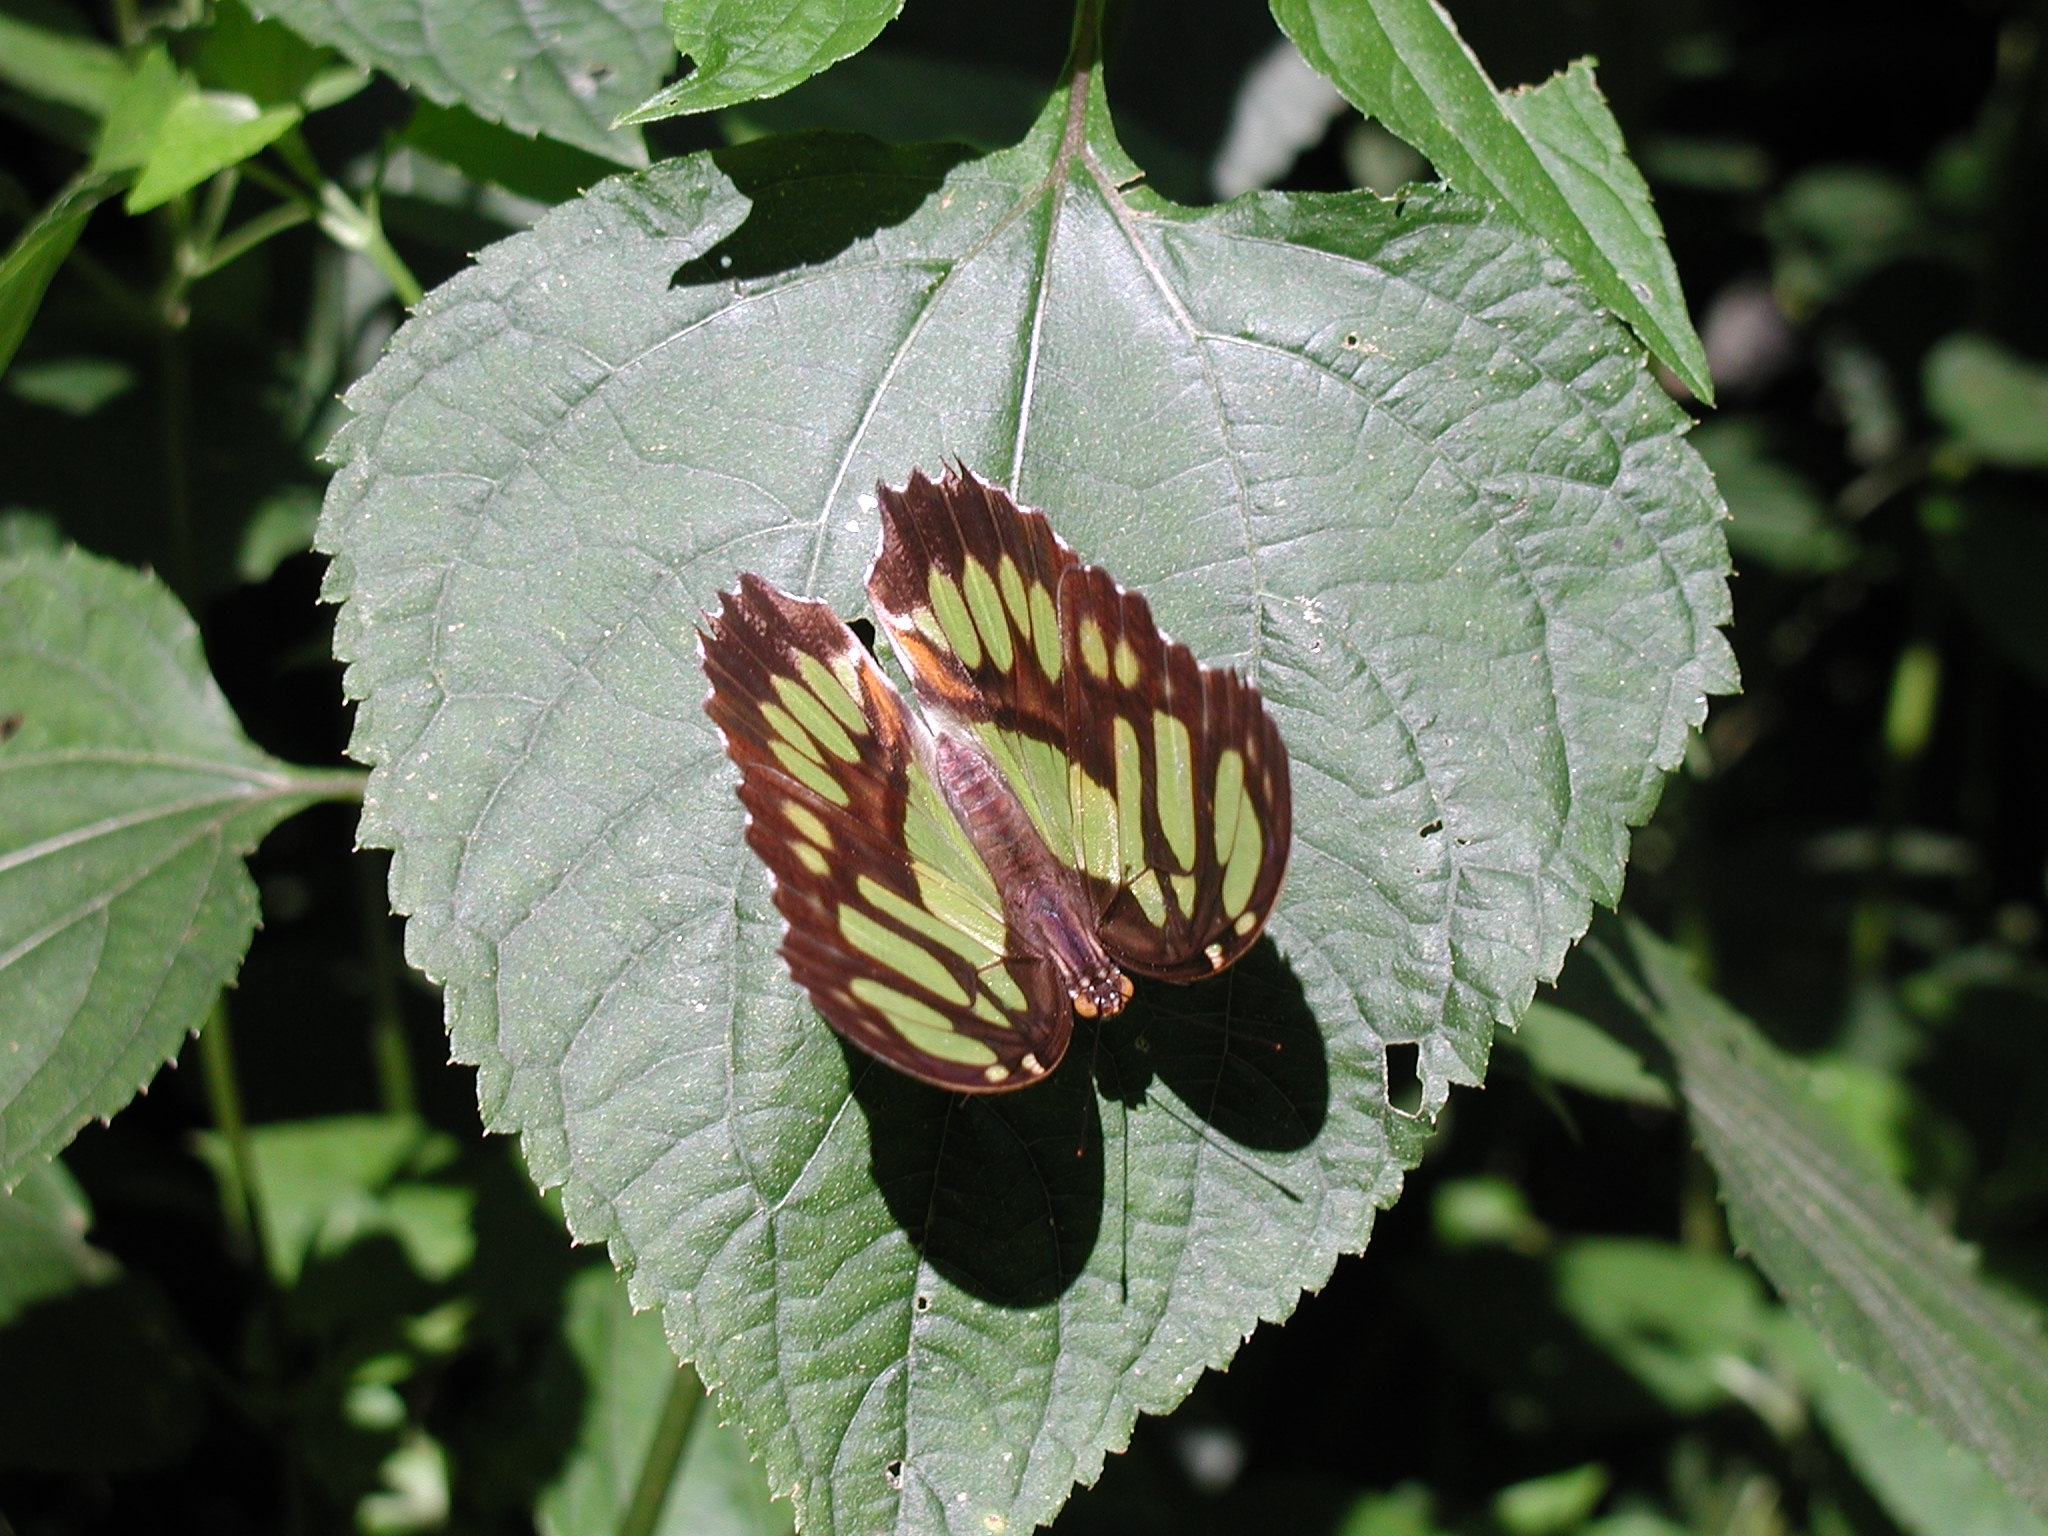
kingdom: Animalia
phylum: Arthropoda
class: Insecta
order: Lepidoptera
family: Nymphalidae
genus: Siproeta
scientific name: Siproeta stelenes
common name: Malachite
